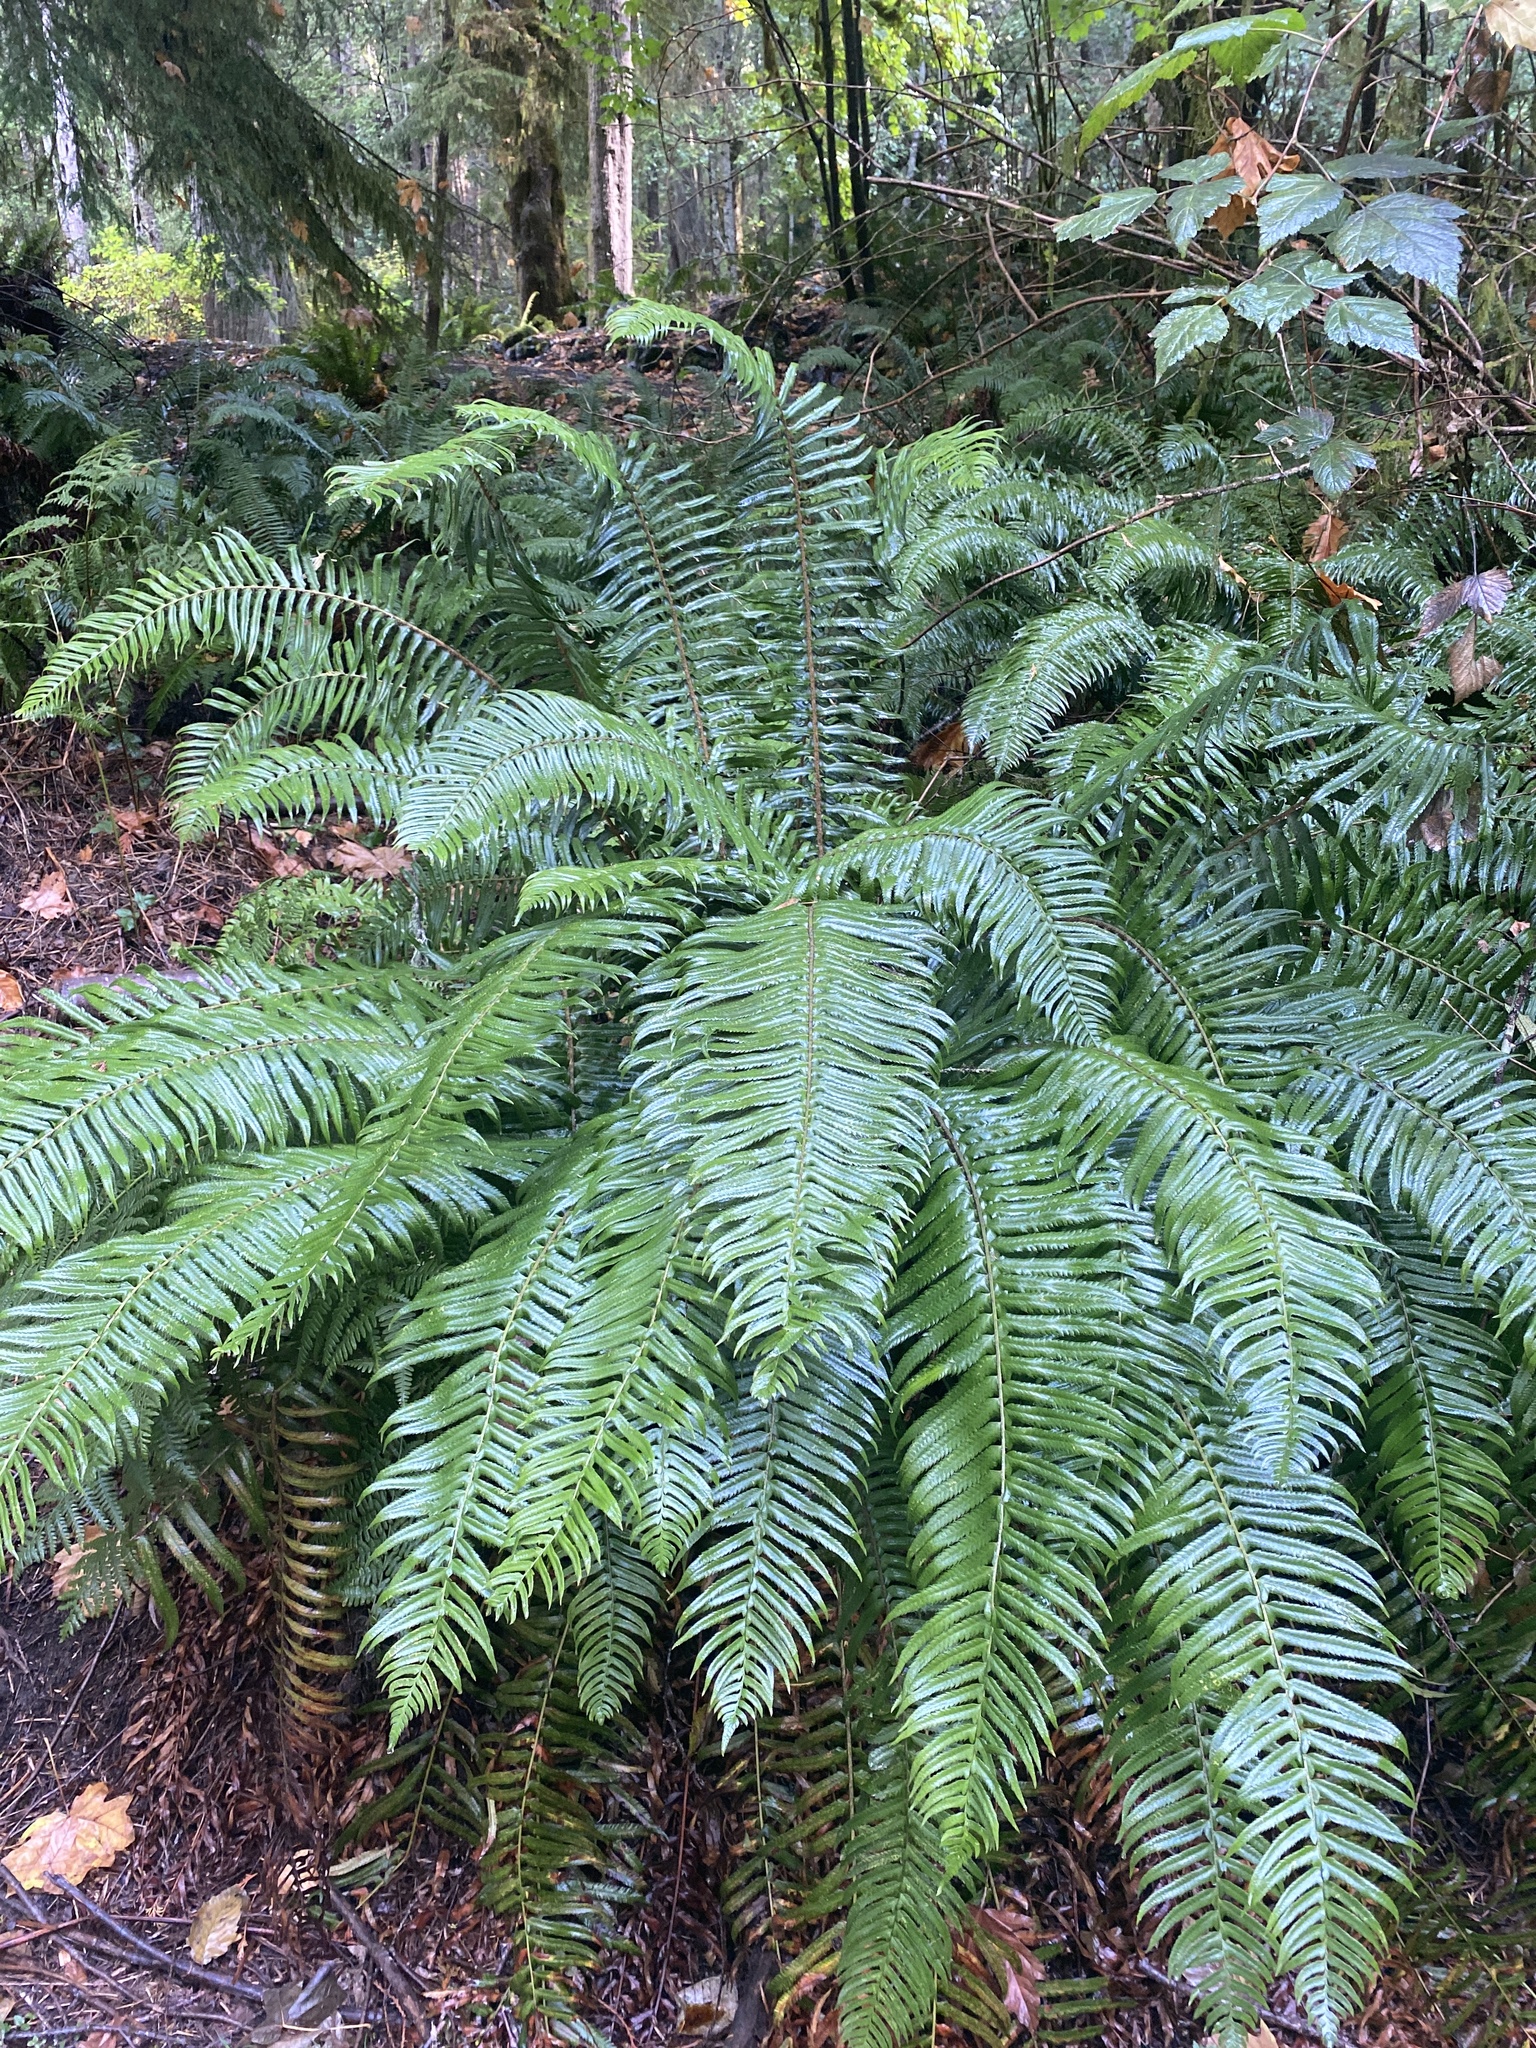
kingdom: Plantae
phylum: Tracheophyta
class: Polypodiopsida
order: Polypodiales
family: Dryopteridaceae
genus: Polystichum
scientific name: Polystichum munitum
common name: Western sword-fern
